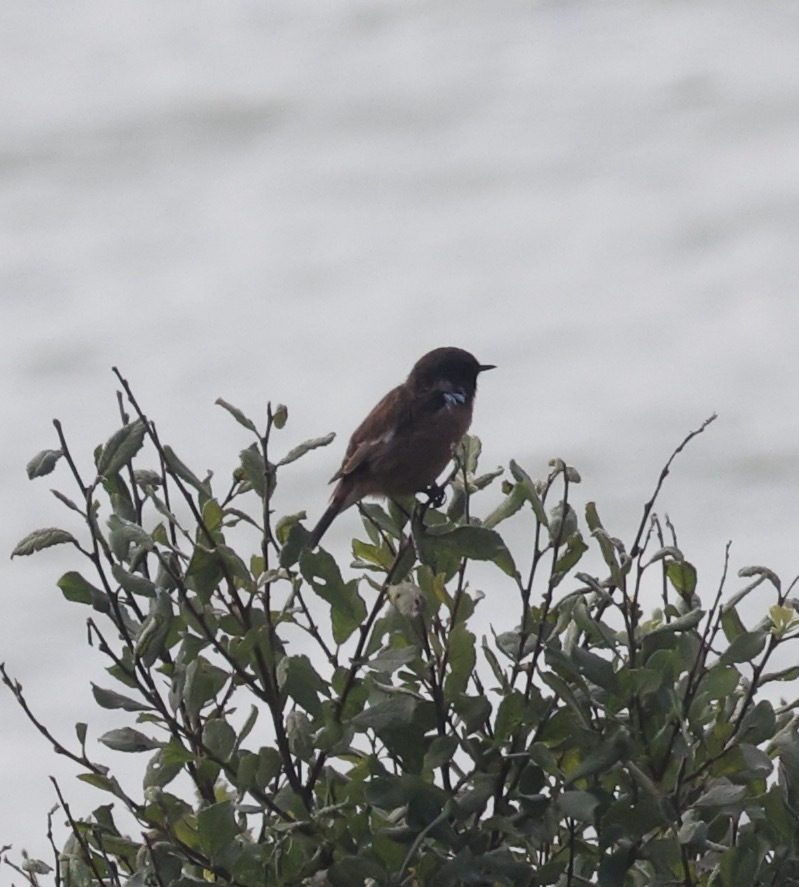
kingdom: Animalia
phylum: Chordata
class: Aves
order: Passeriformes
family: Muscicapidae
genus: Saxicola
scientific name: Saxicola rubicola
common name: European stonechat
